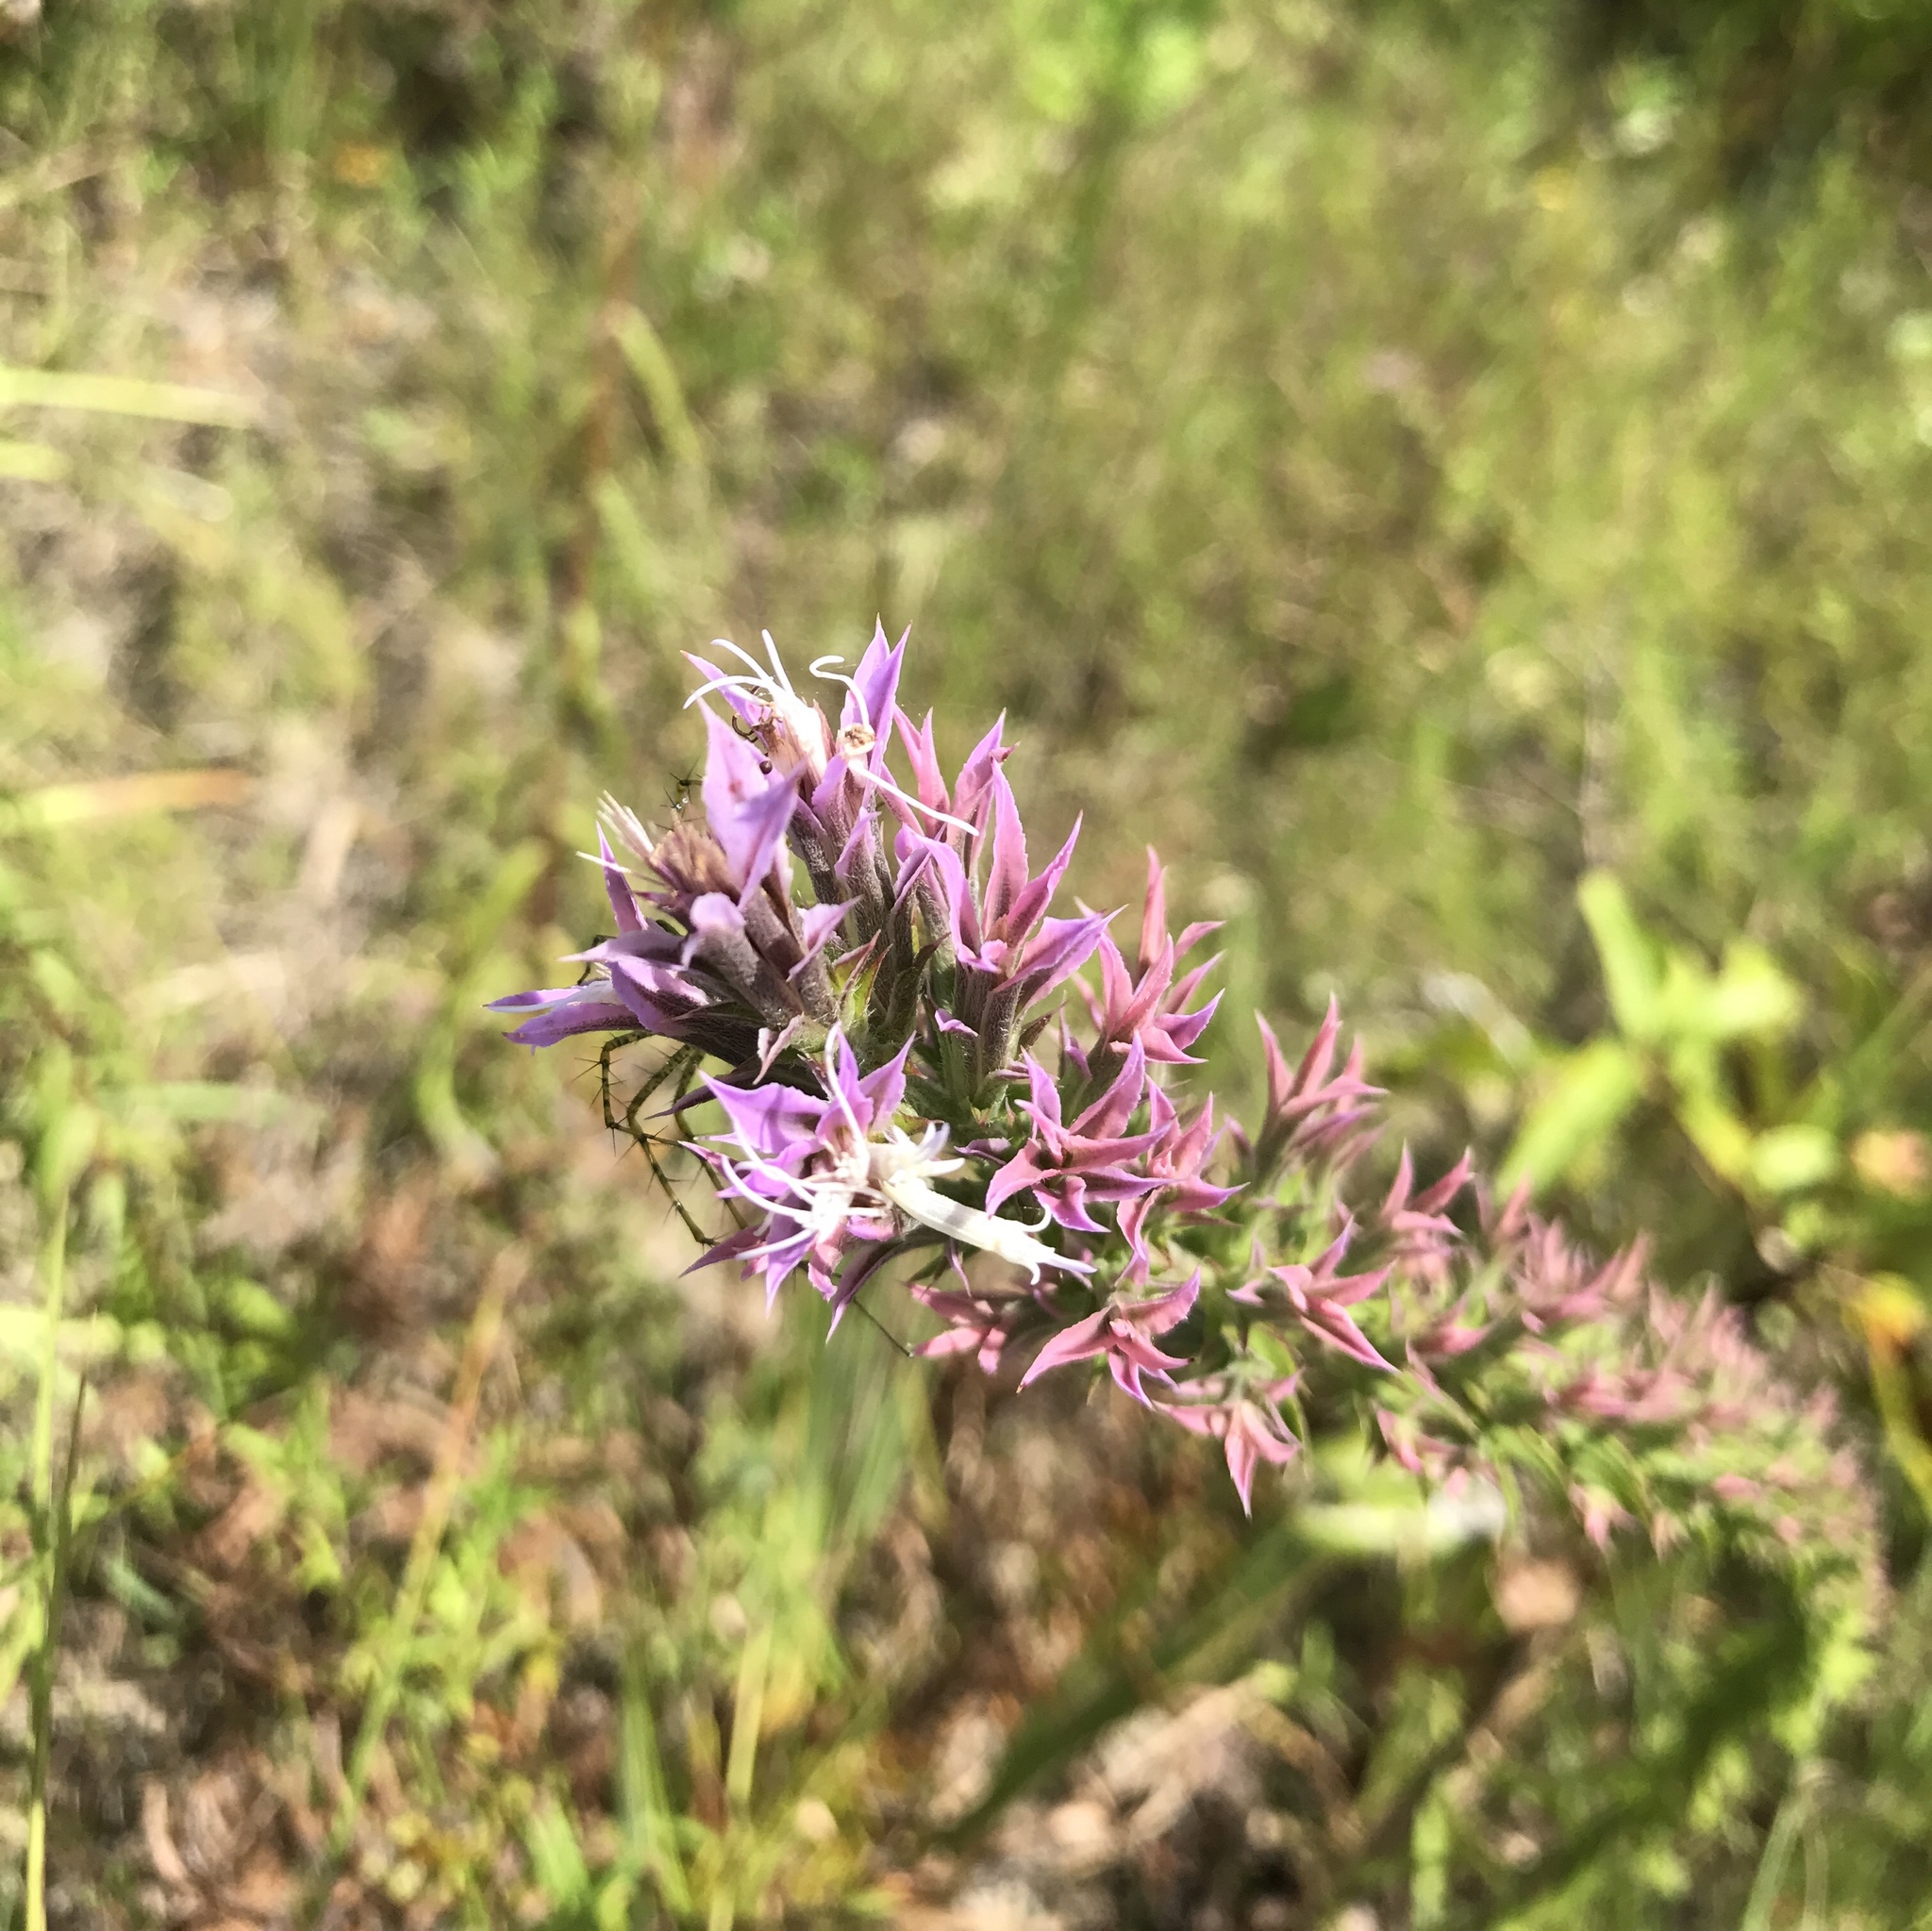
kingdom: Plantae
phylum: Tracheophyta
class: Magnoliopsida
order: Asterales
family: Asteraceae
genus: Liatris
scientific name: Liatris hesperelegans
